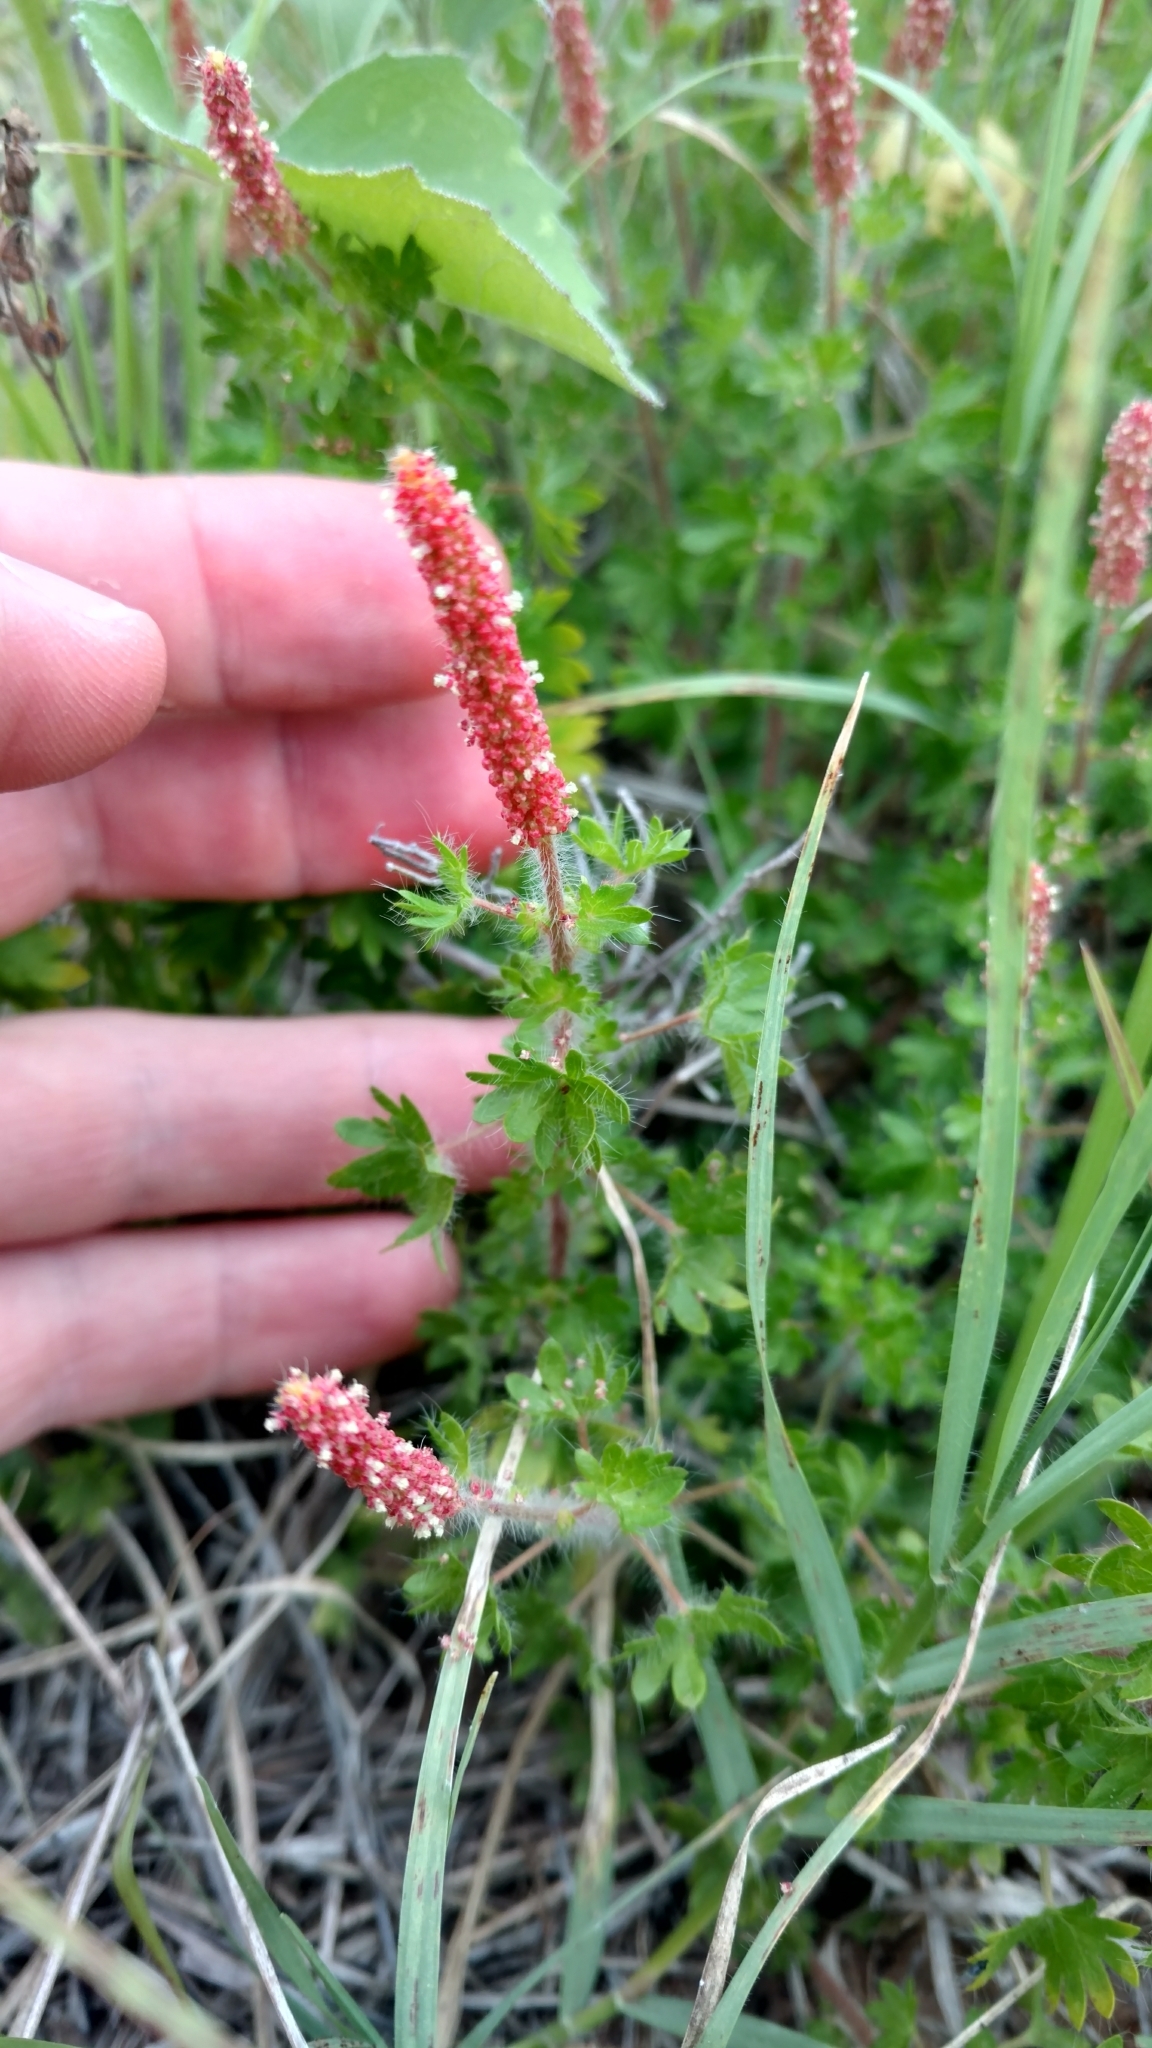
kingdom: Plantae
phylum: Tracheophyta
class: Magnoliopsida
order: Malpighiales
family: Euphorbiaceae
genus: Acalypha
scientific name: Acalypha radians
